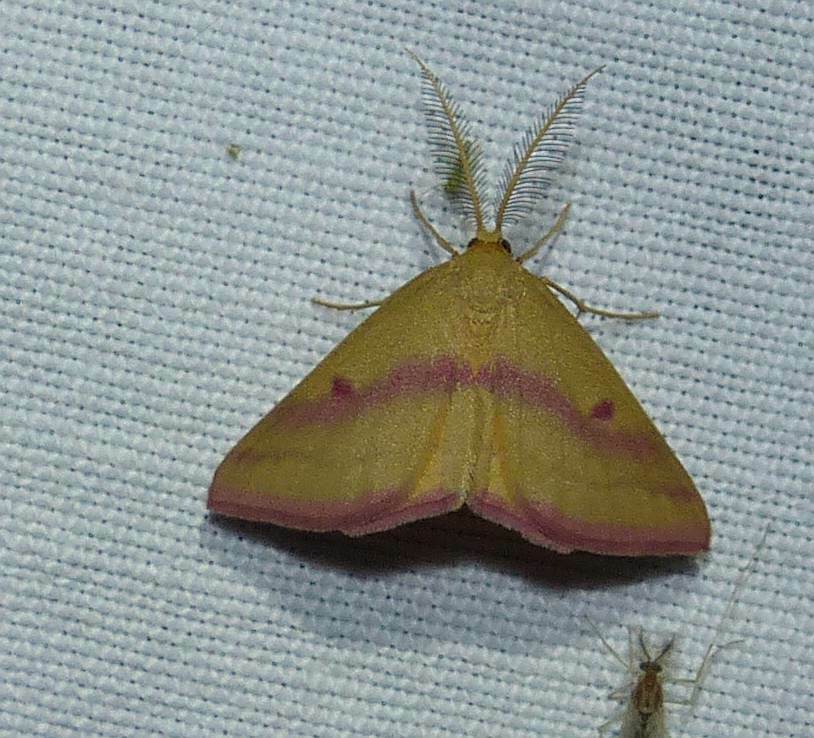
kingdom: Animalia
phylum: Arthropoda
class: Insecta
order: Lepidoptera
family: Geometridae
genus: Haematopis
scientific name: Haematopis grataria
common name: Chickweed geometer
